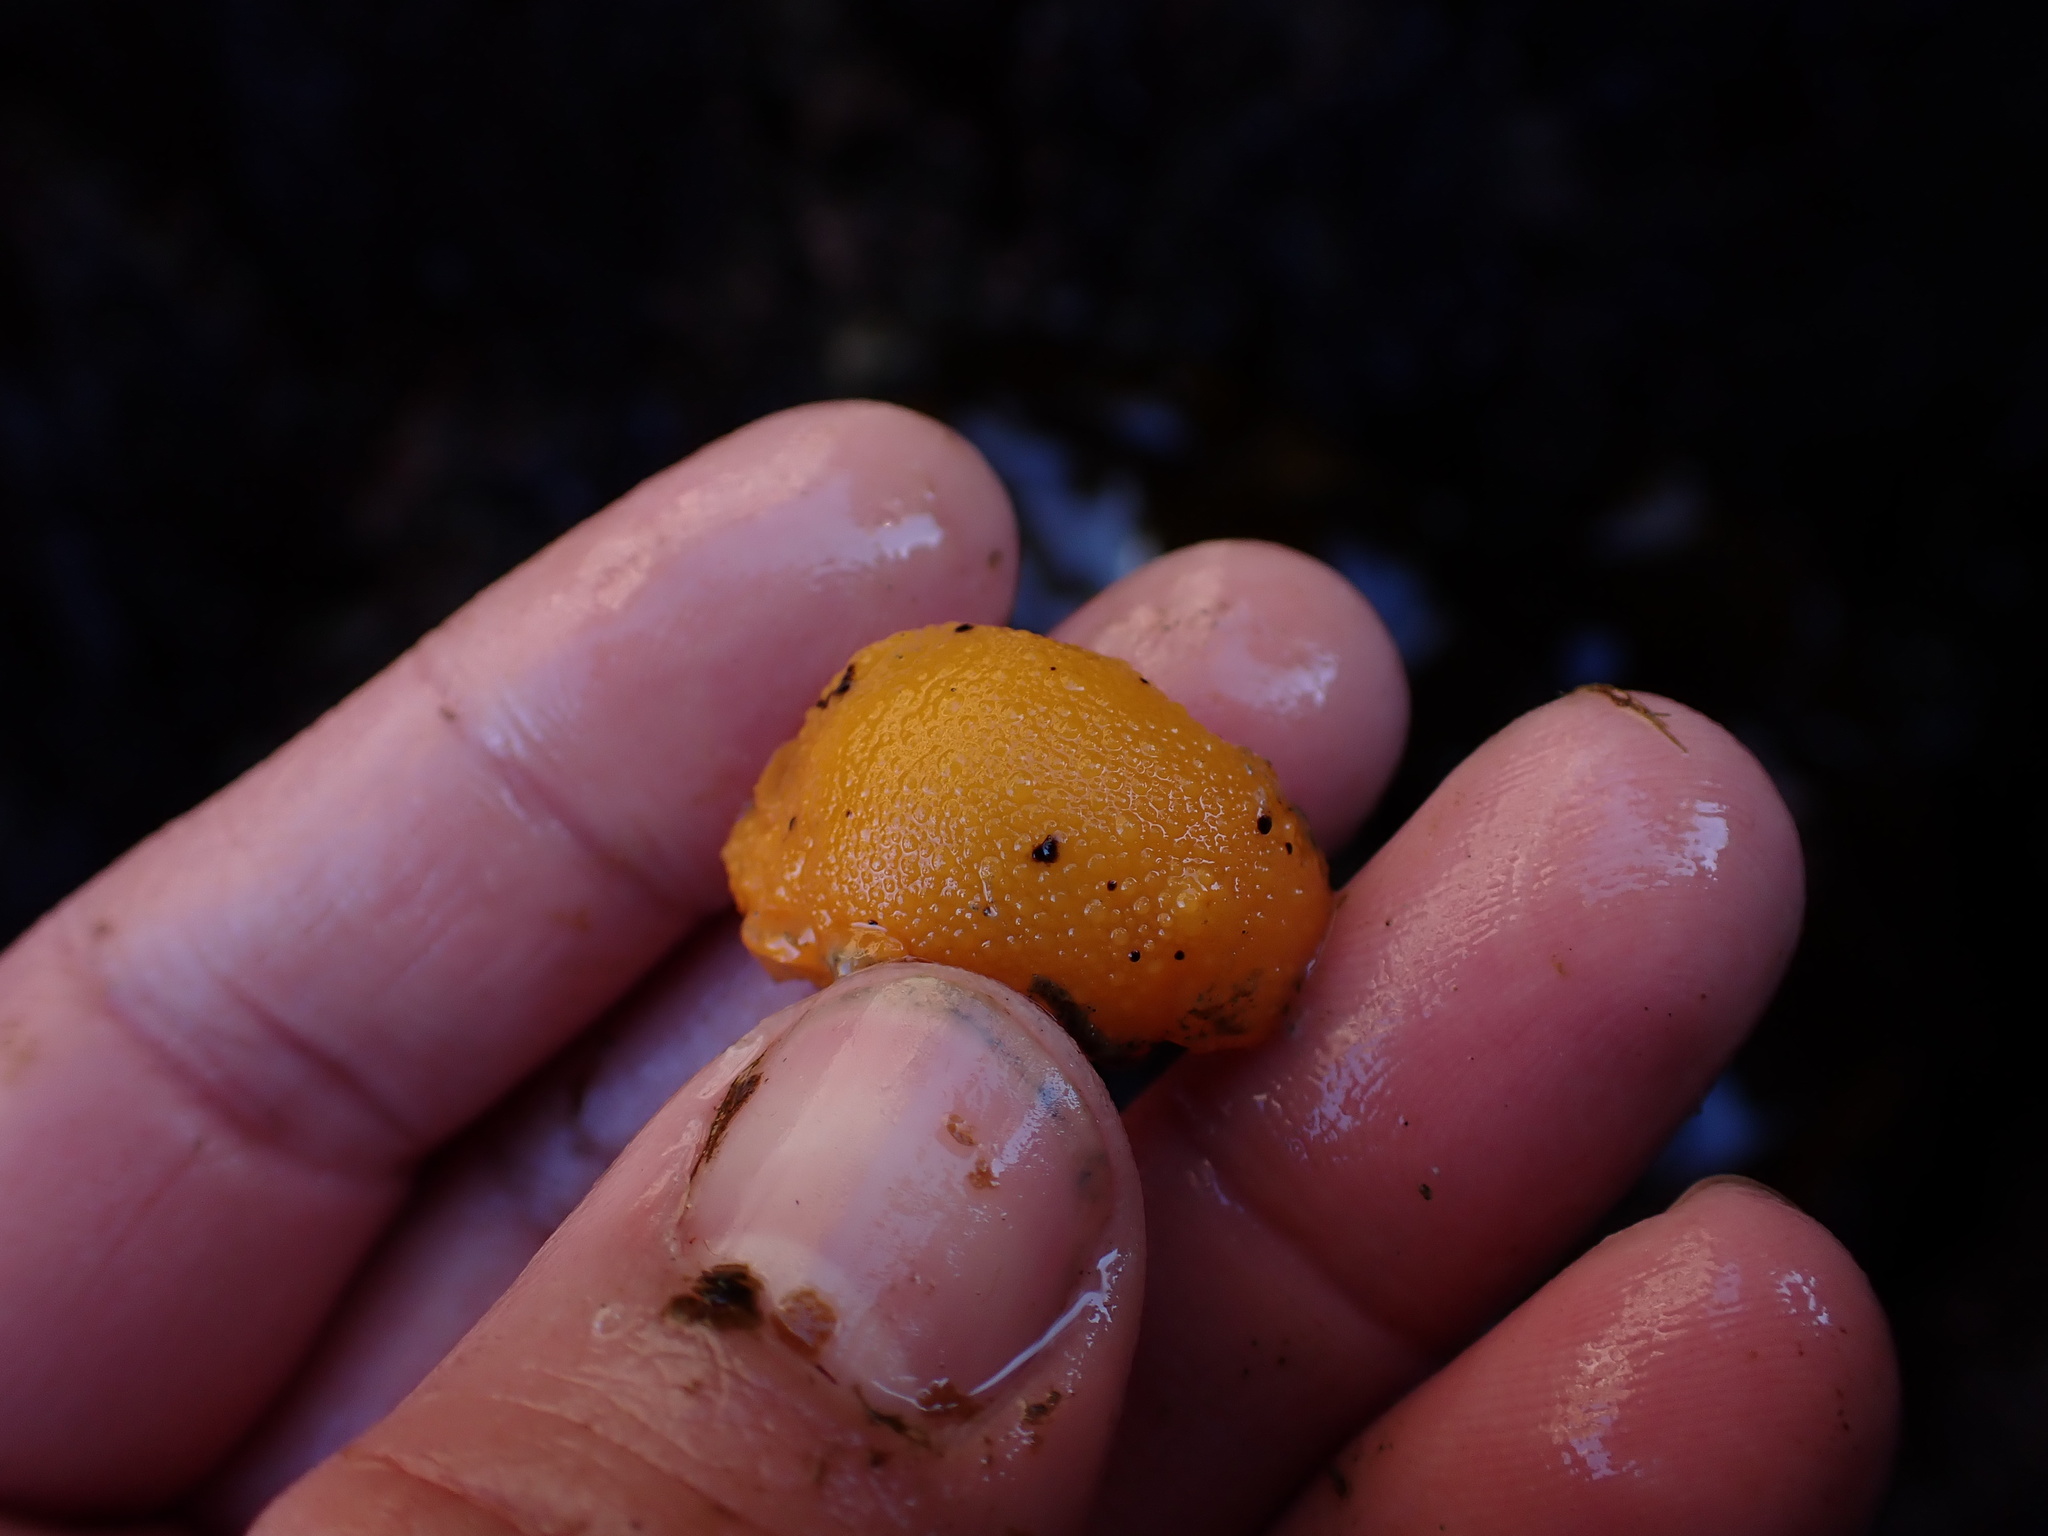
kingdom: Animalia
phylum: Mollusca
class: Gastropoda
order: Nudibranchia
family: Dorididae
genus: Doris
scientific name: Doris montereyensis
